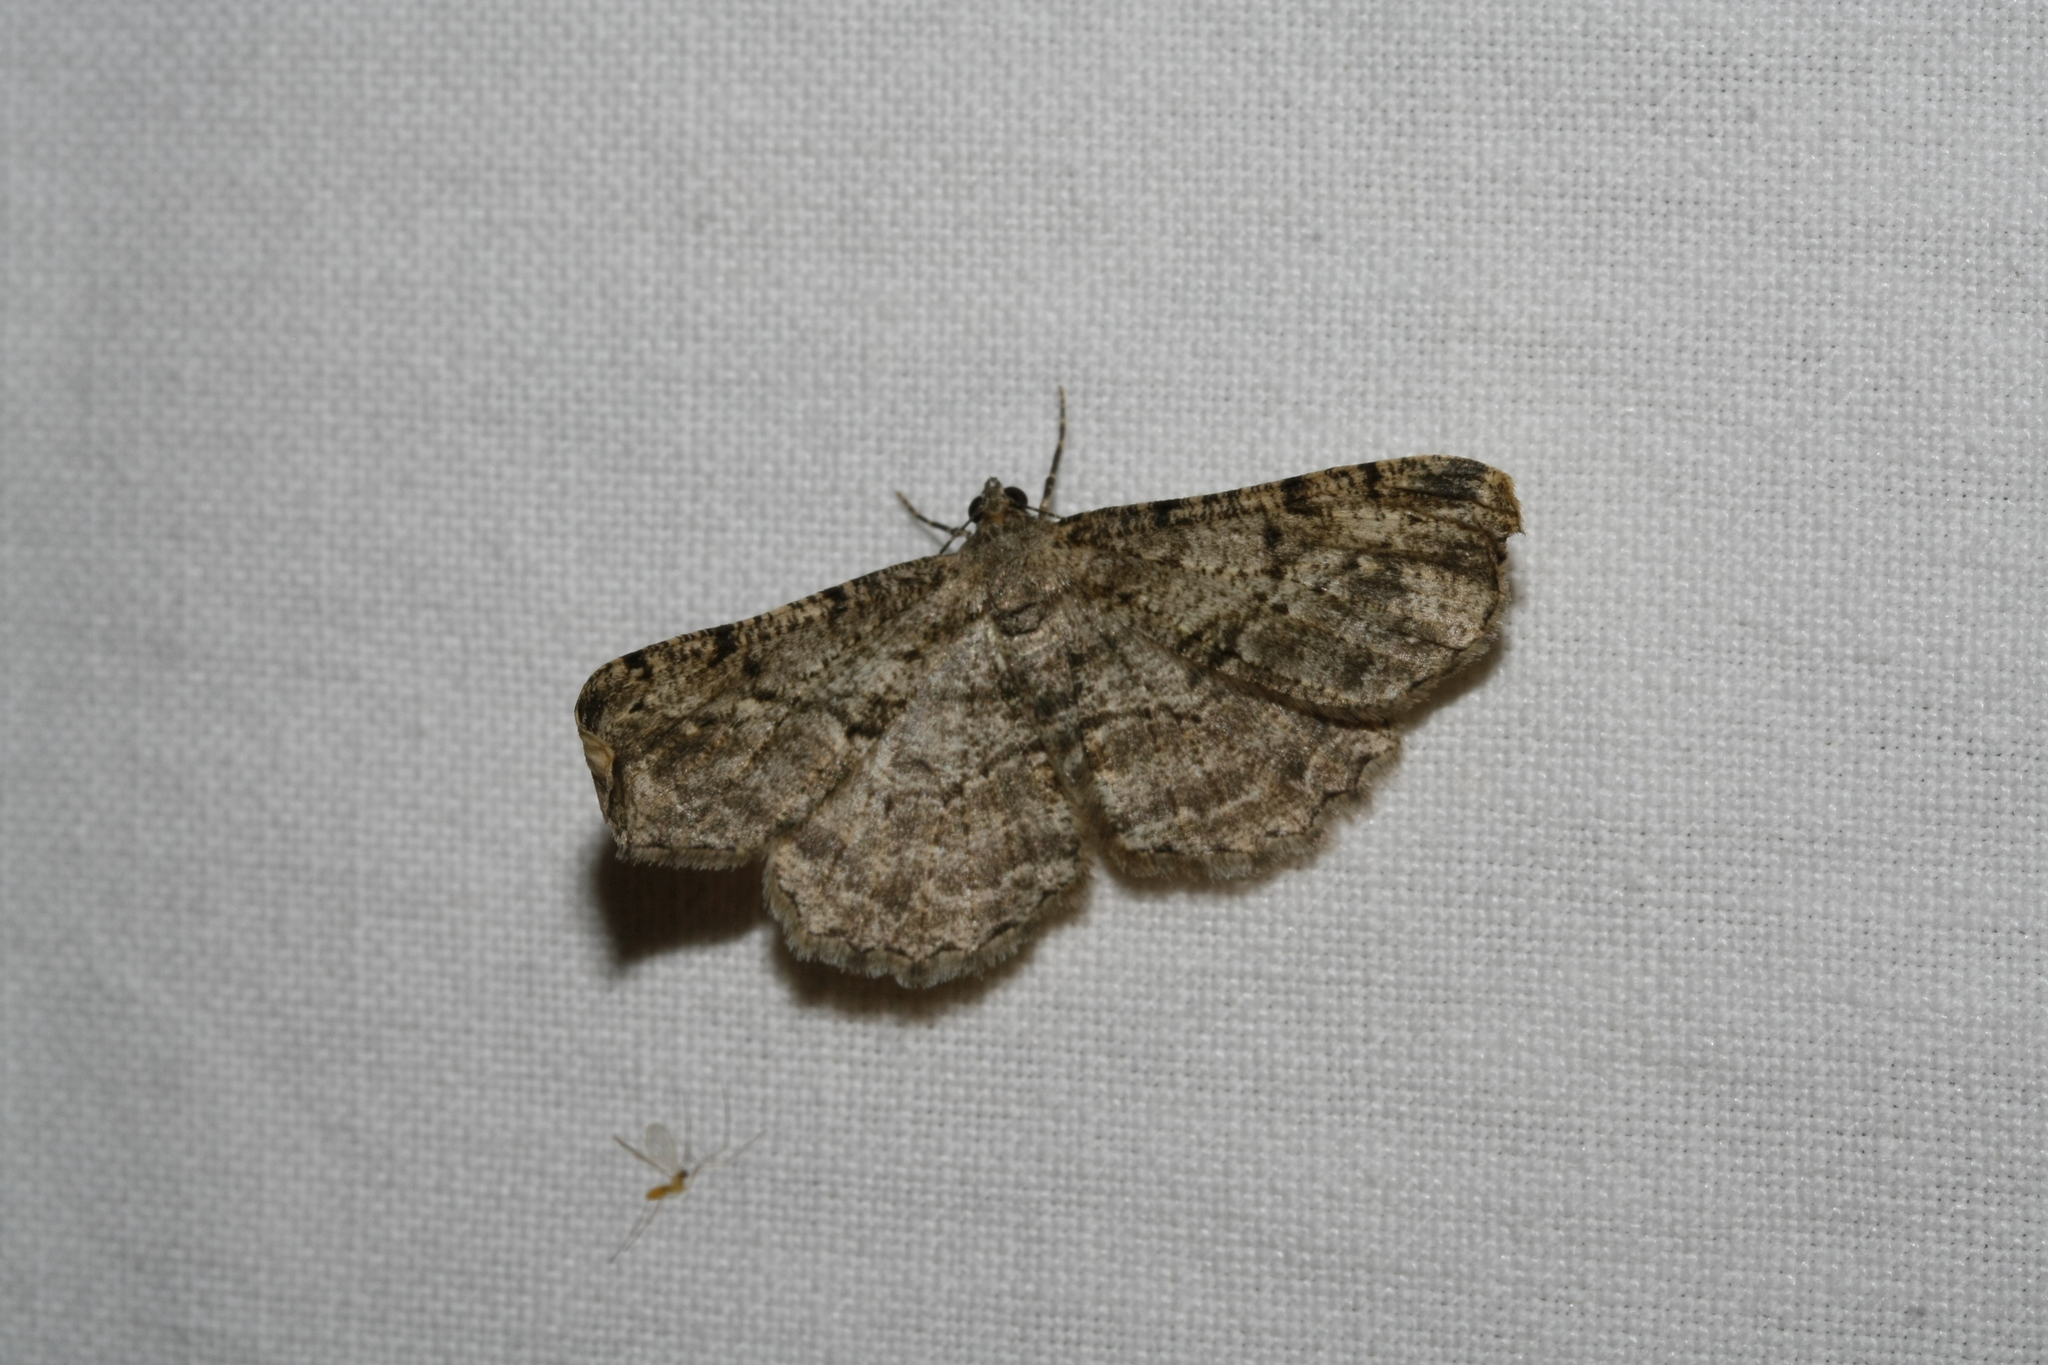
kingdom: Animalia
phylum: Arthropoda
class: Insecta
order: Lepidoptera
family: Geometridae
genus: Peribatodes
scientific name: Peribatodes rhomboidaria
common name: Willow beauty
